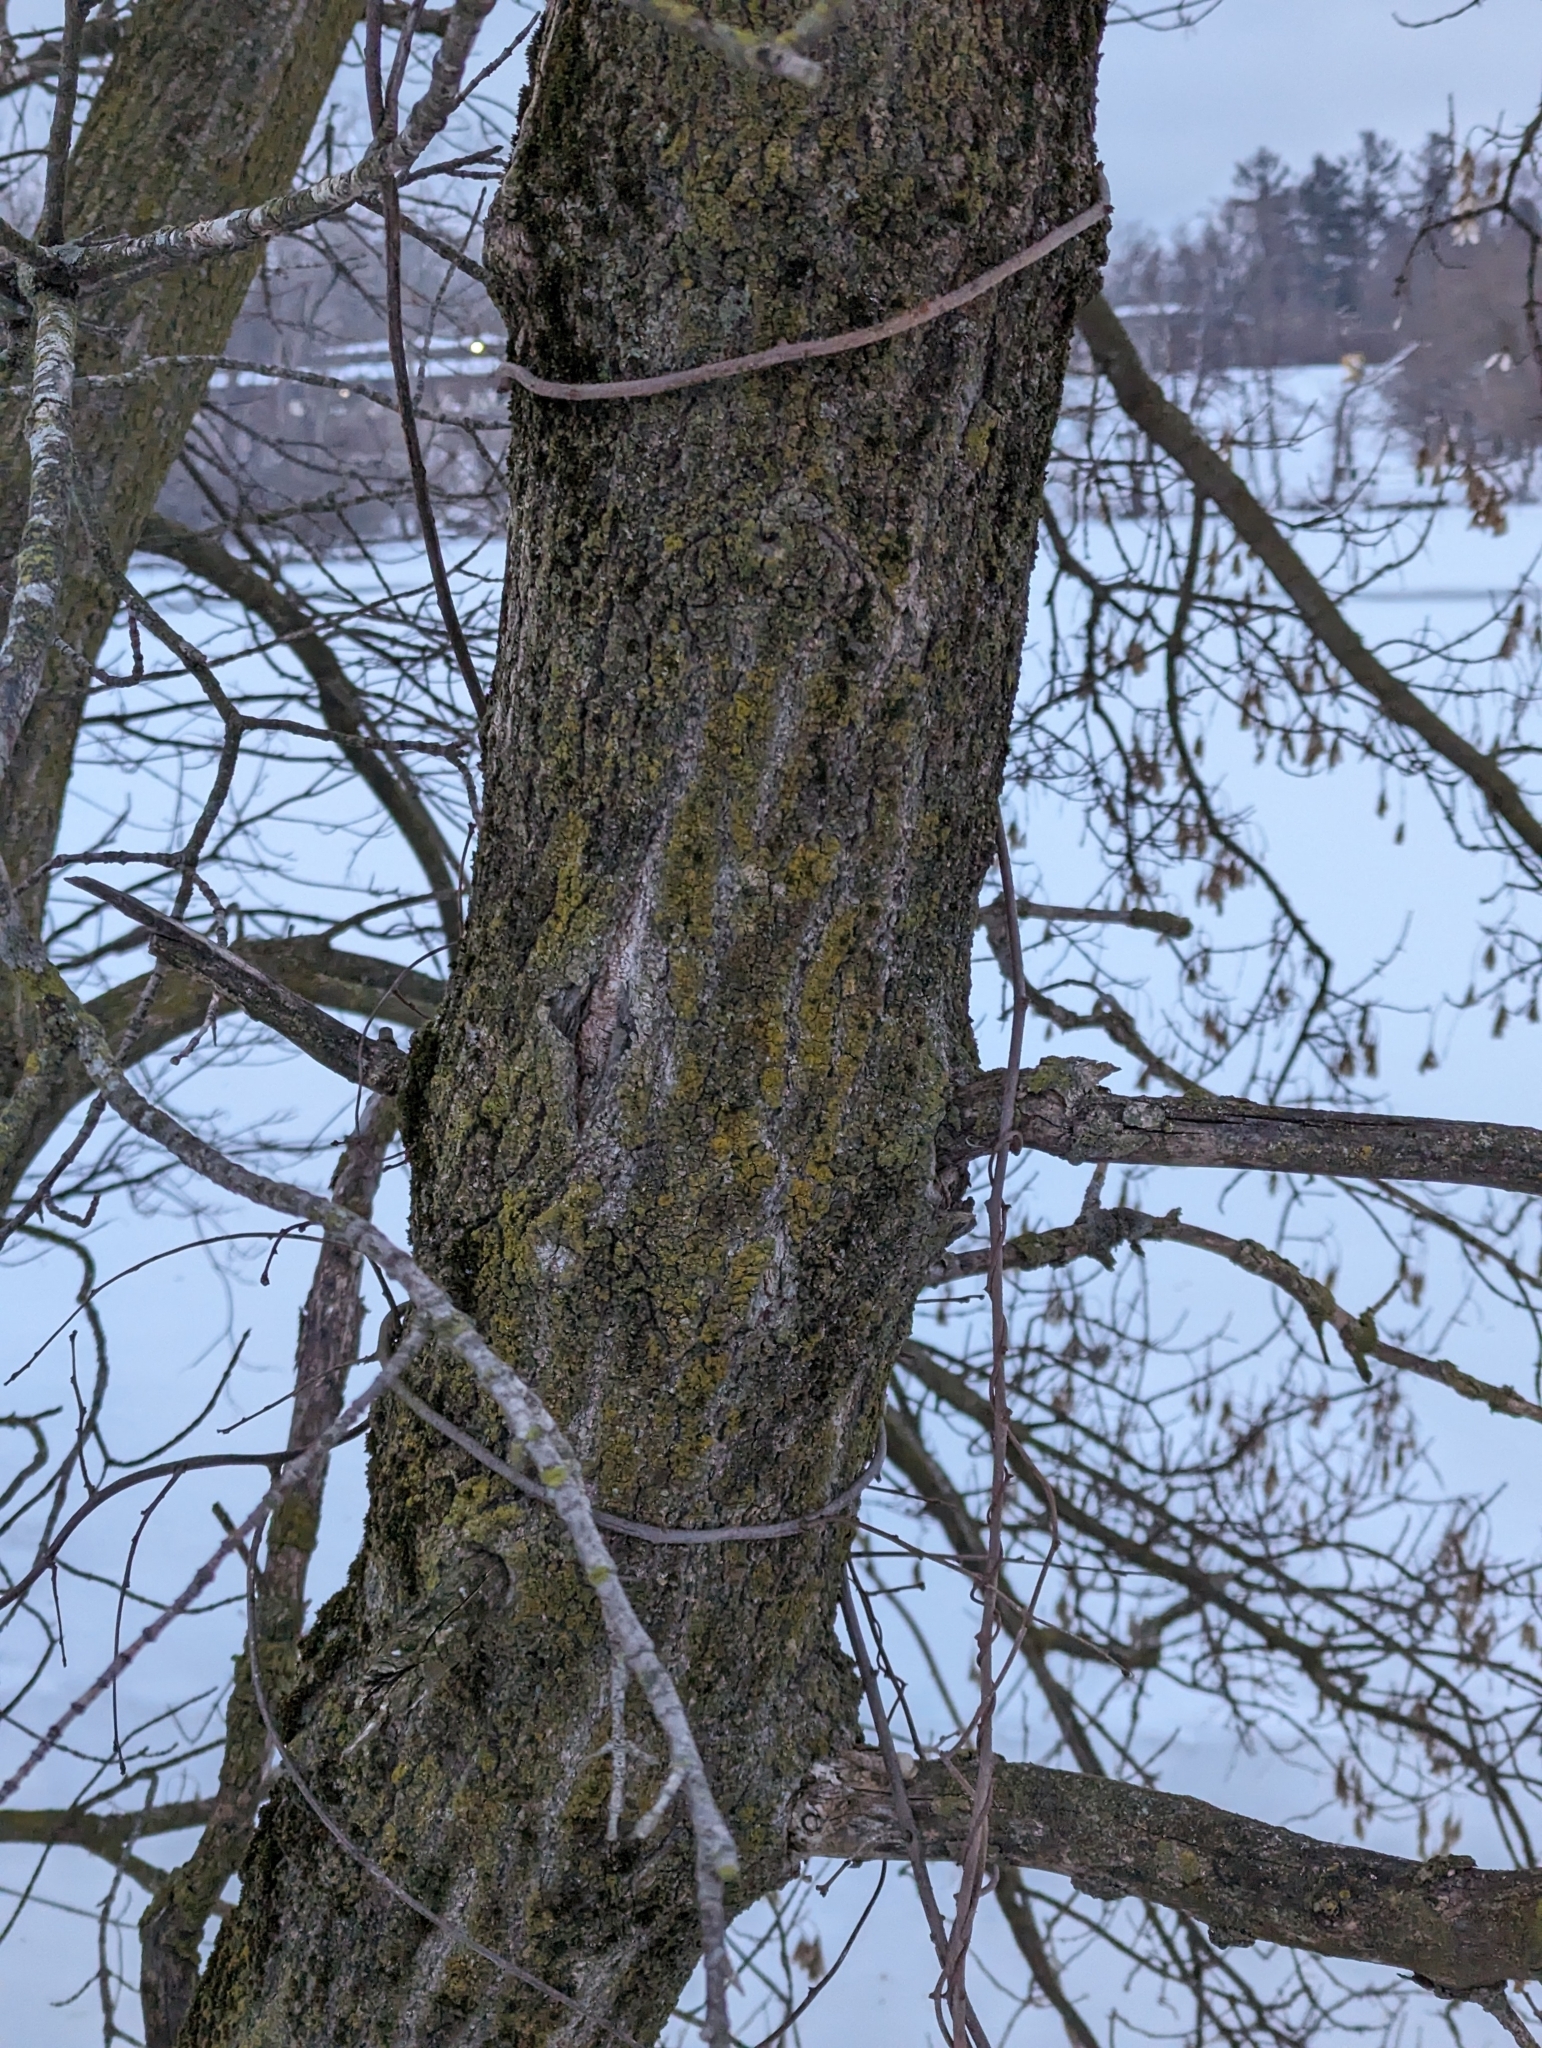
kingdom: Plantae
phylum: Tracheophyta
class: Magnoliopsida
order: Sapindales
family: Sapindaceae
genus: Acer
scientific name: Acer negundo
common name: Ashleaf maple
